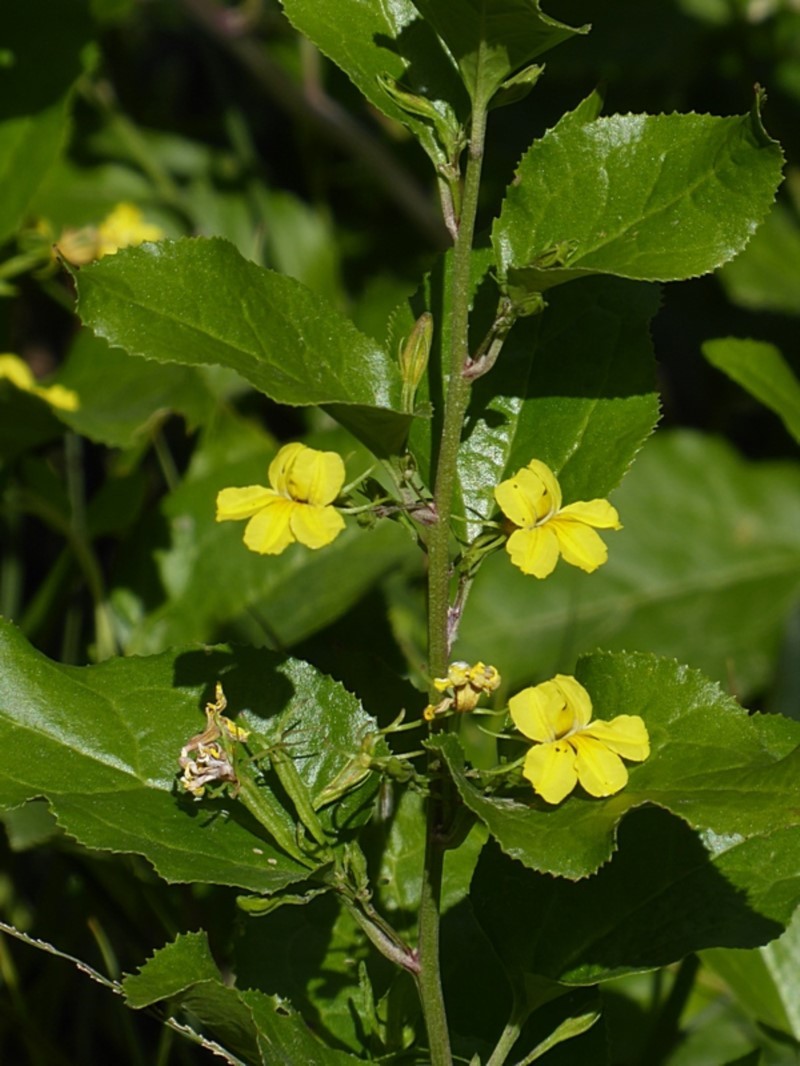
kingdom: Plantae
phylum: Tracheophyta
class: Magnoliopsida
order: Asterales
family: Goodeniaceae
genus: Goodenia
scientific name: Goodenia ovata
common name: Hop goodenia
